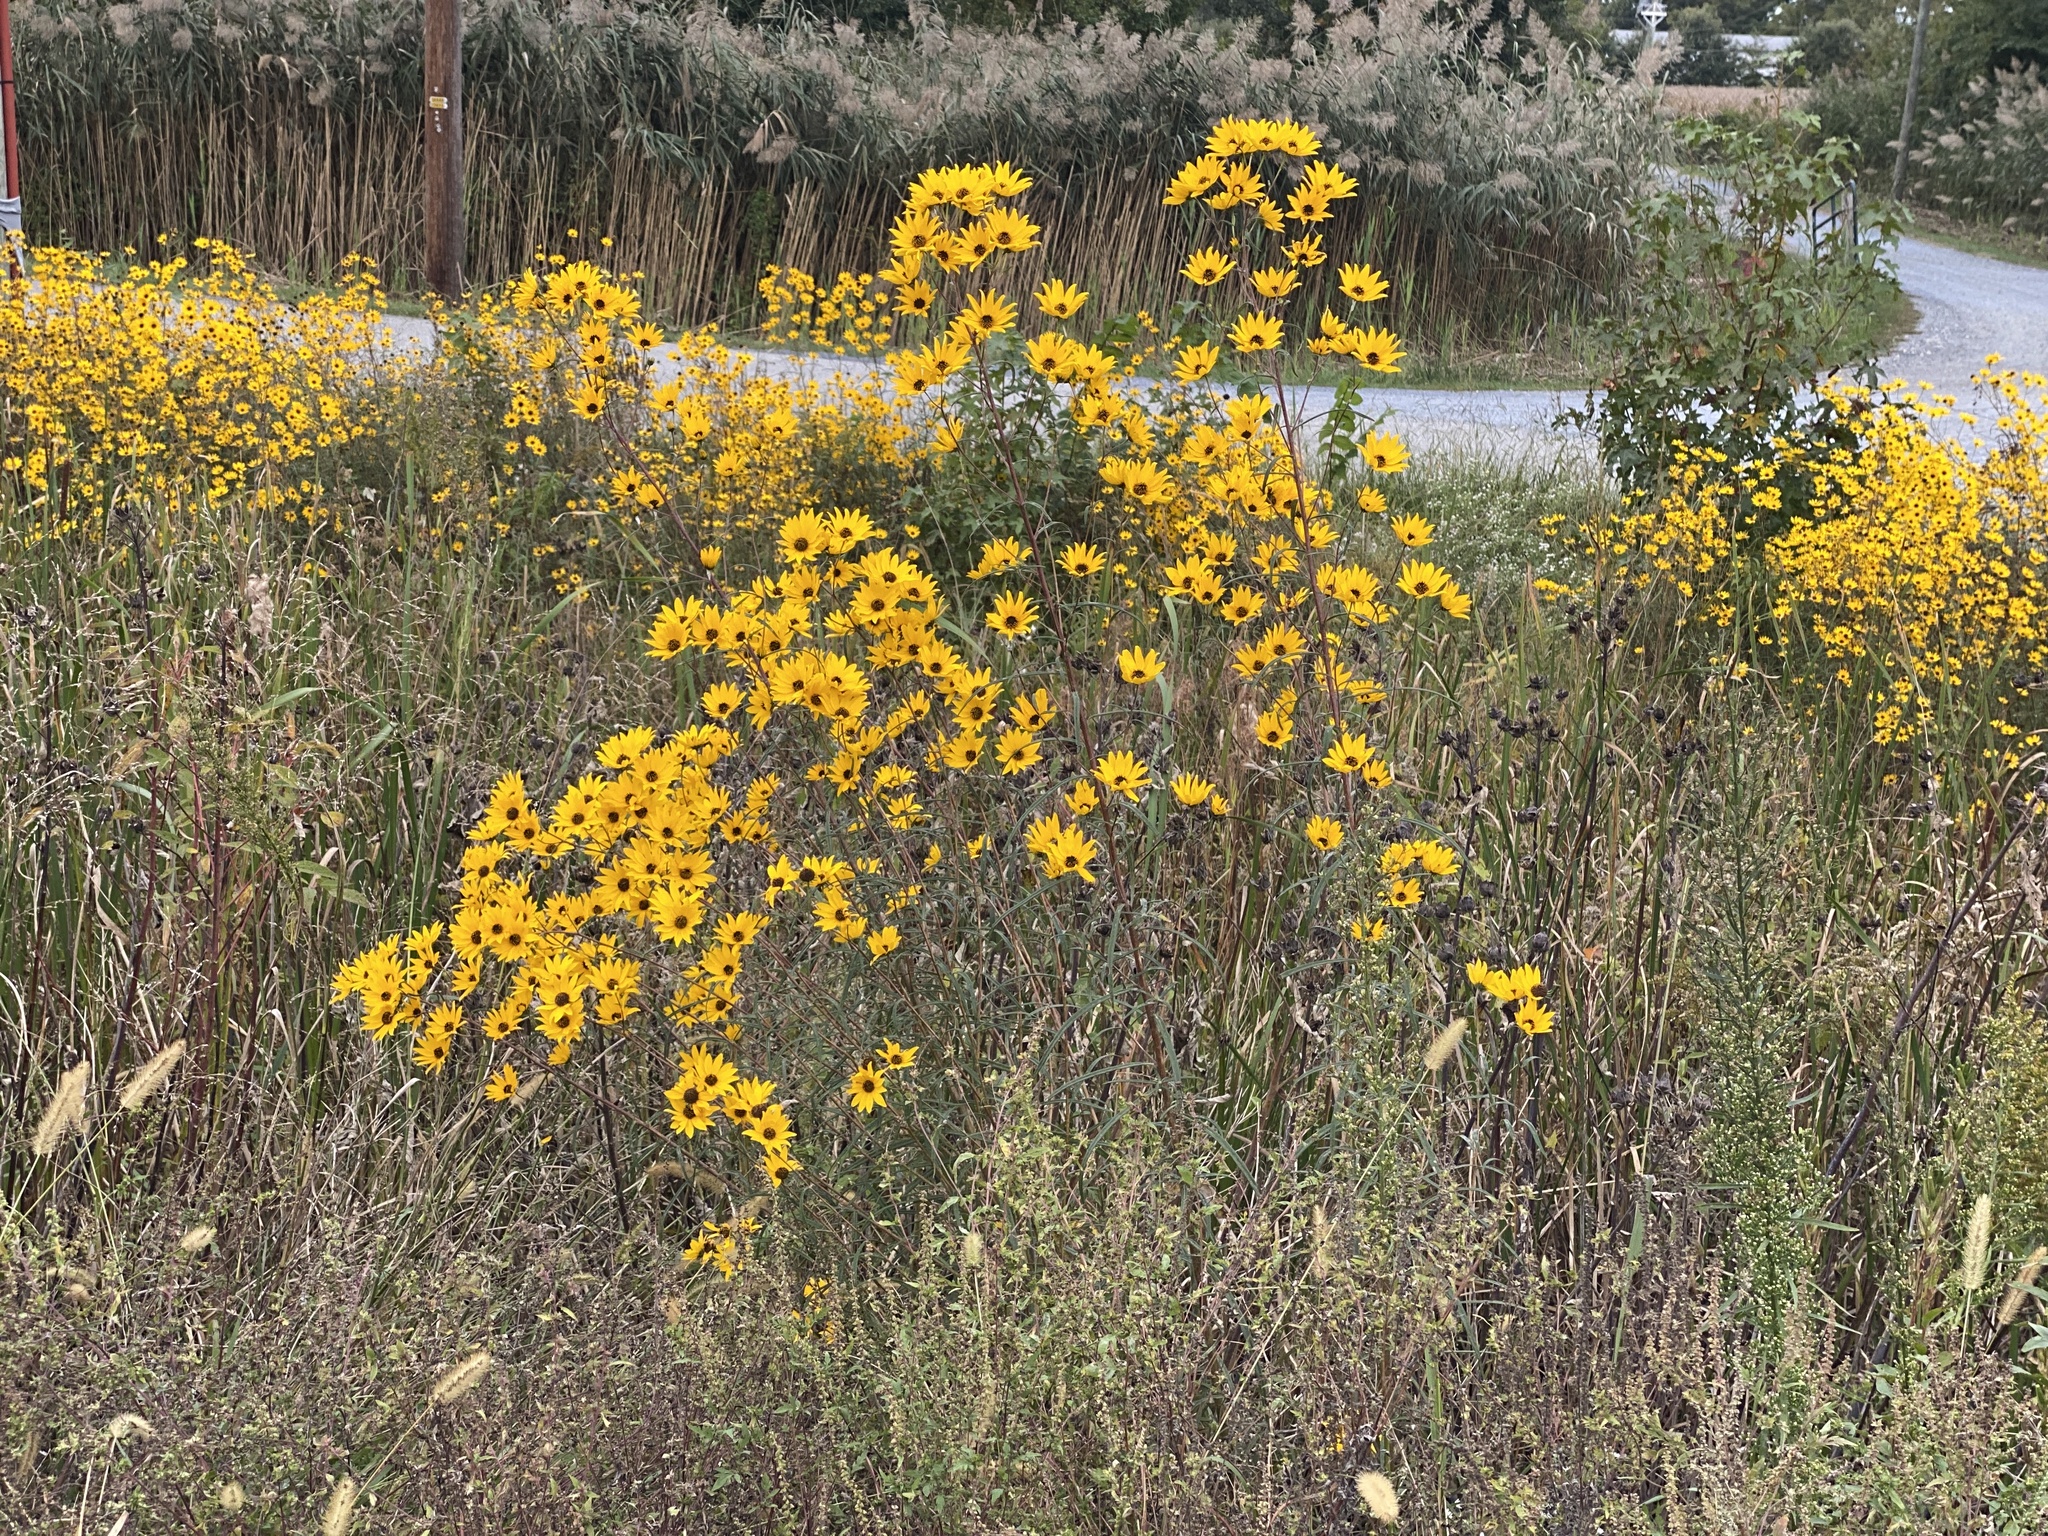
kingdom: Plantae
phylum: Tracheophyta
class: Magnoliopsida
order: Asterales
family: Asteraceae
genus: Helianthus
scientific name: Helianthus angustifolius
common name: Swamp sunflower
